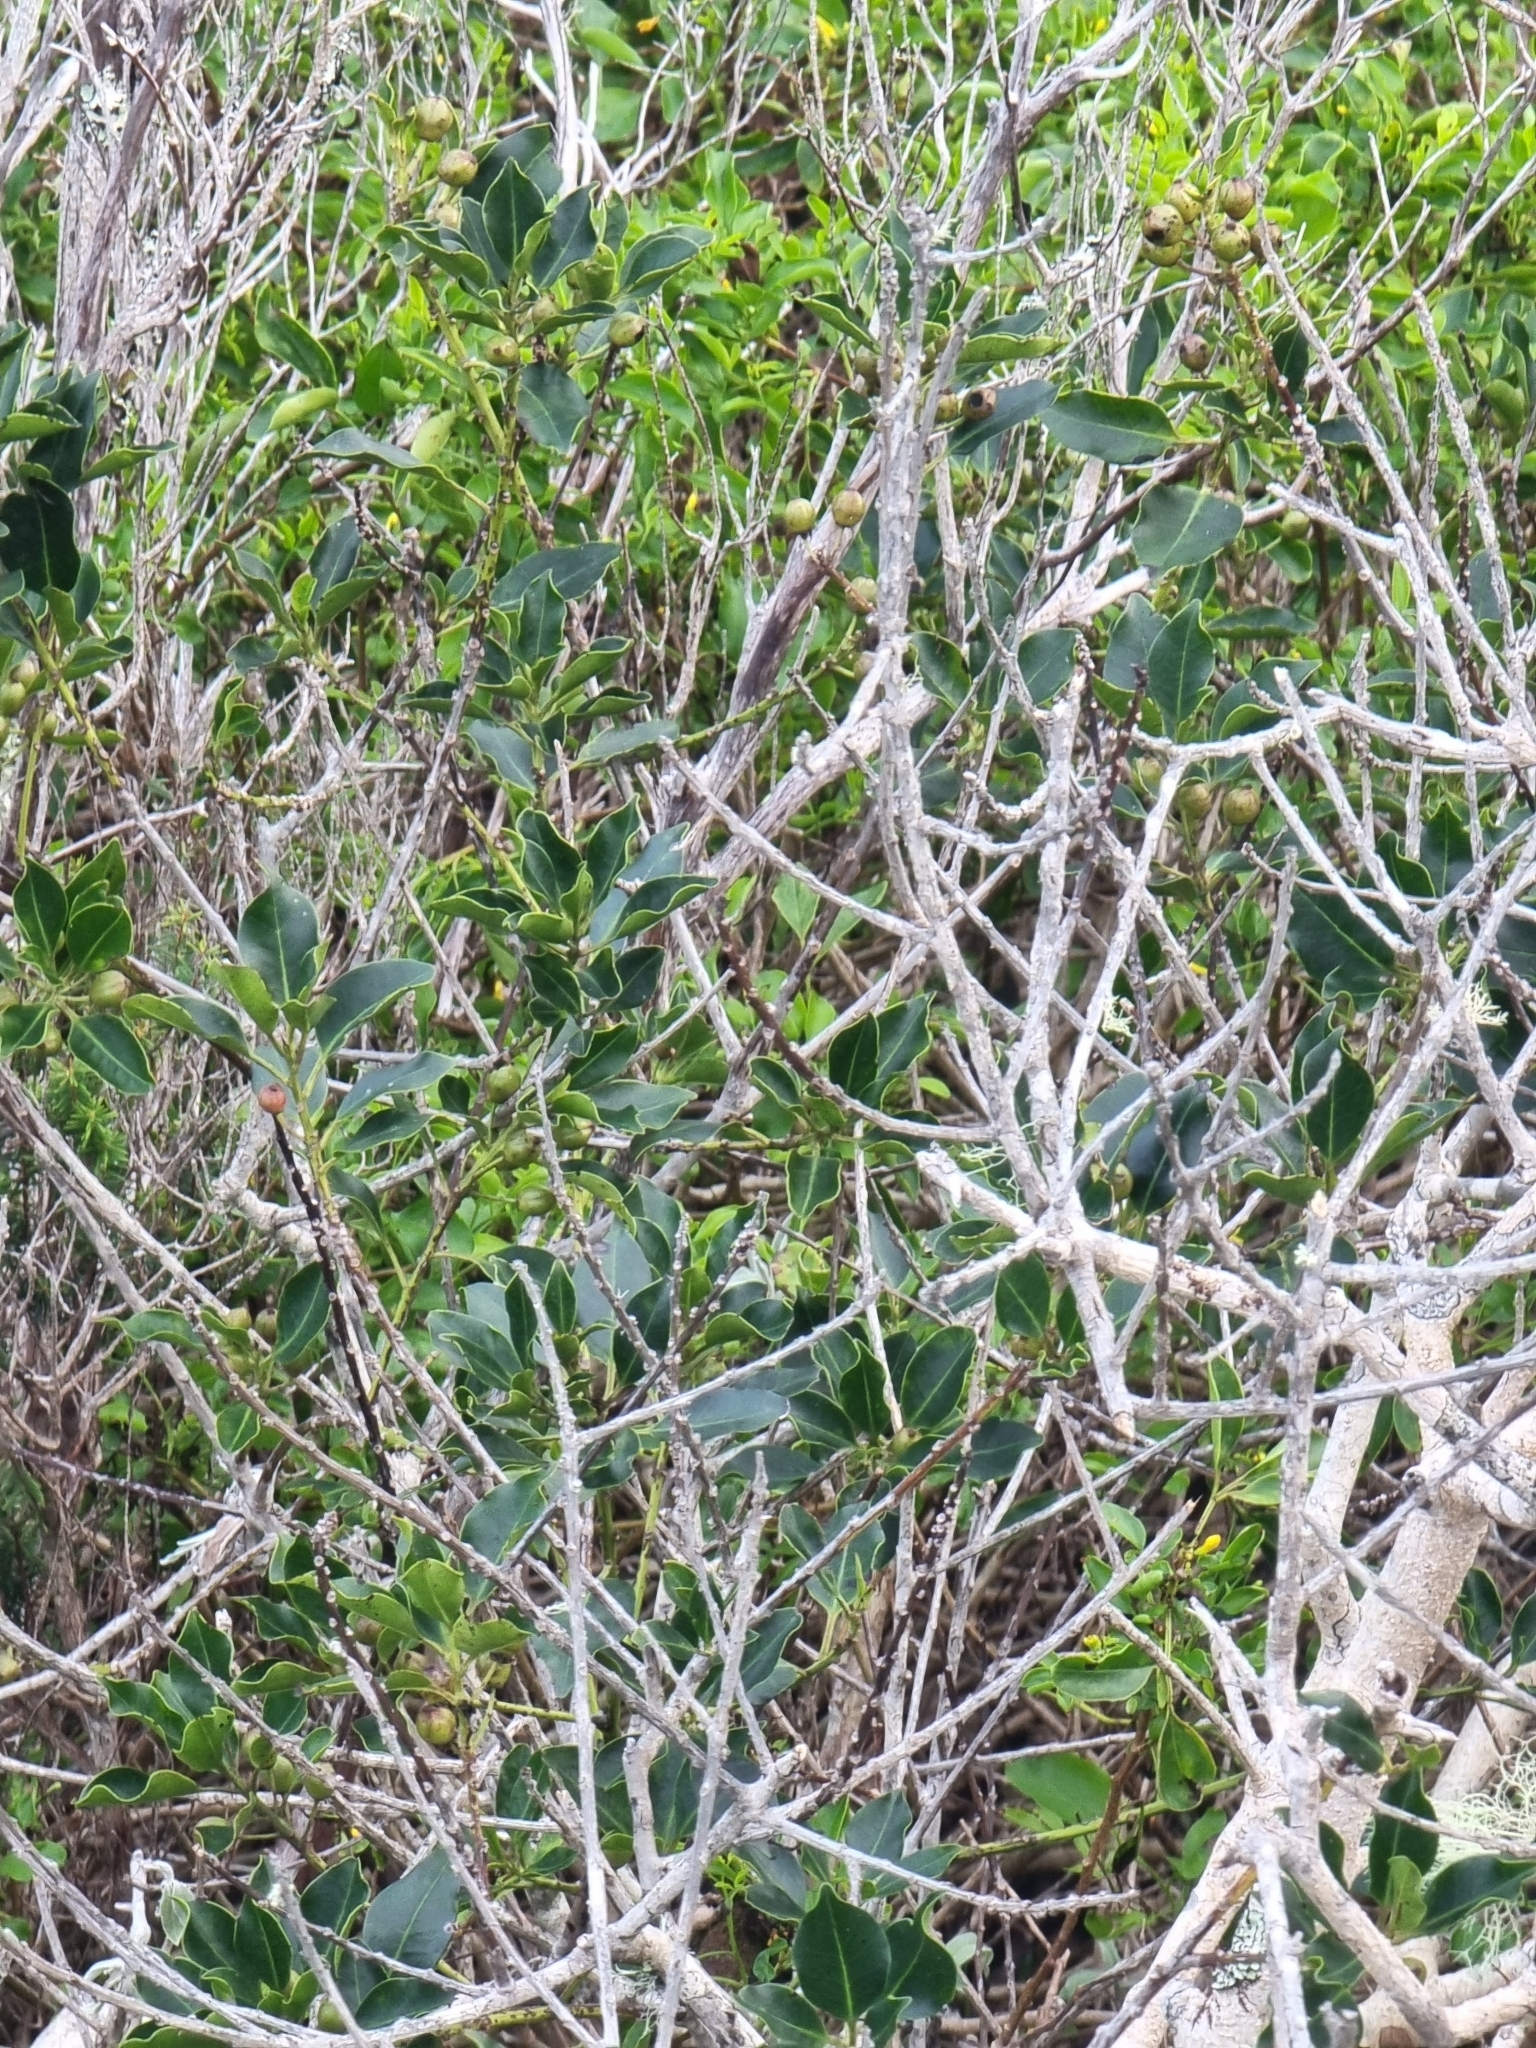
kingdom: Plantae
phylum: Tracheophyta
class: Magnoliopsida
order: Aquifoliales
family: Aquifoliaceae
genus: Ilex
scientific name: Ilex canariensis
